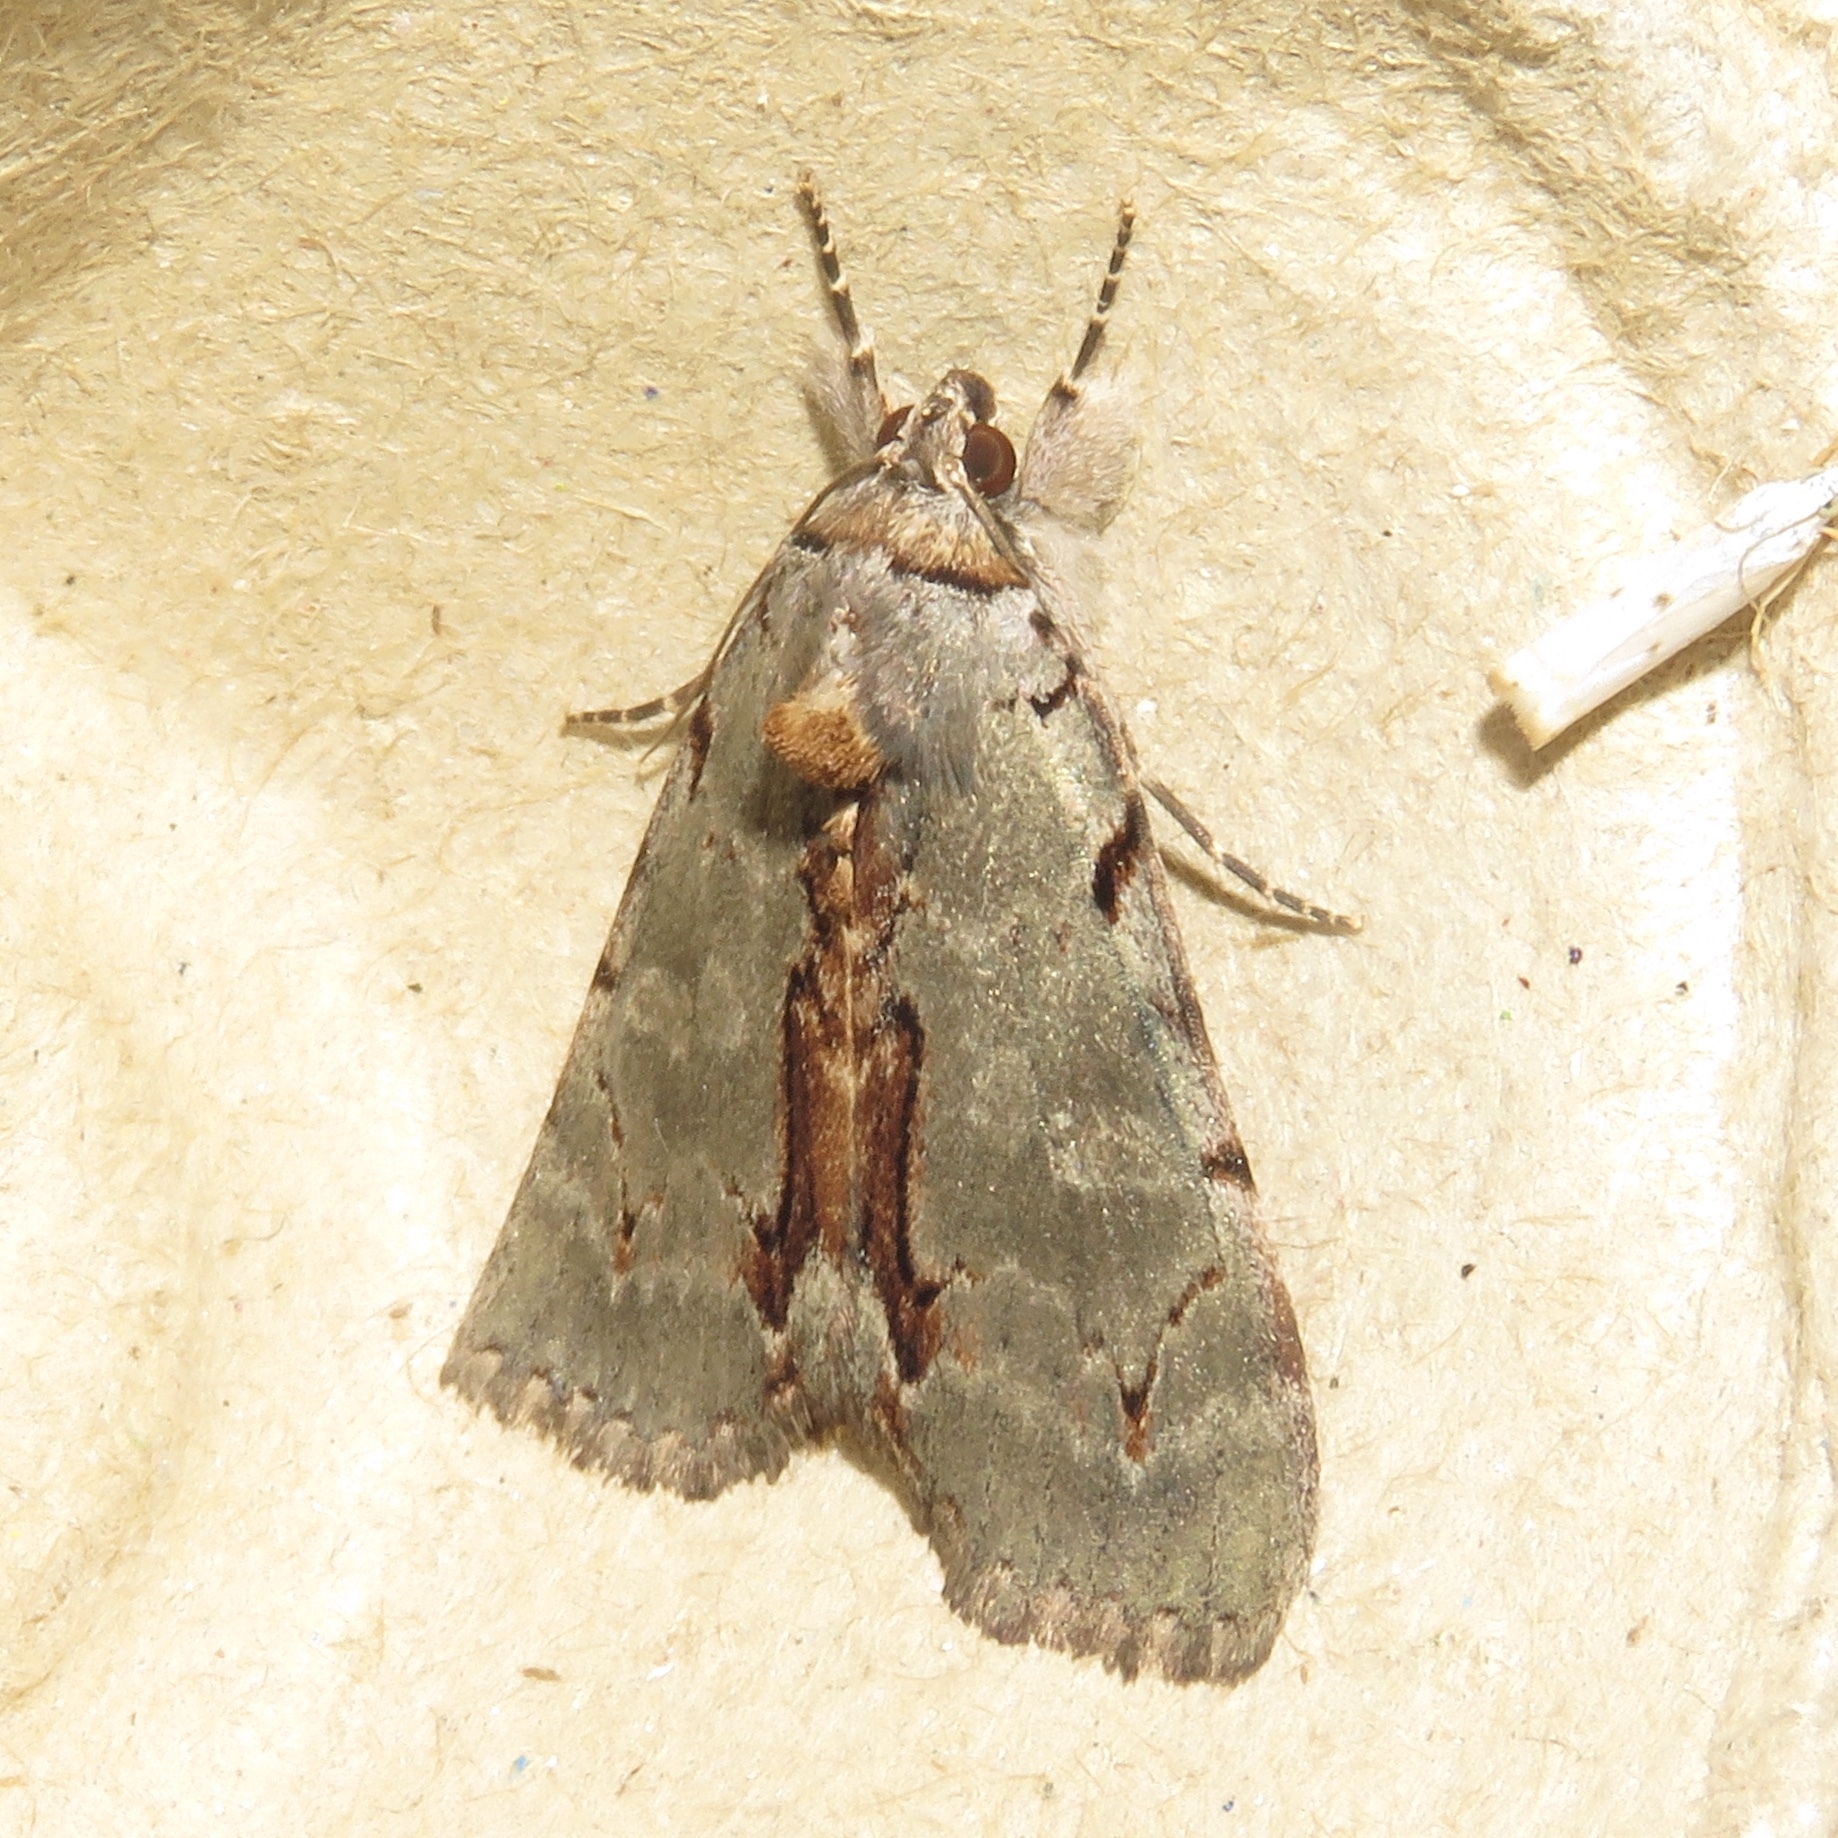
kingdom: Animalia
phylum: Arthropoda
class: Insecta
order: Lepidoptera
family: Erebidae
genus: Catocala
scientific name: Catocala grynea
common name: Woody underwing
